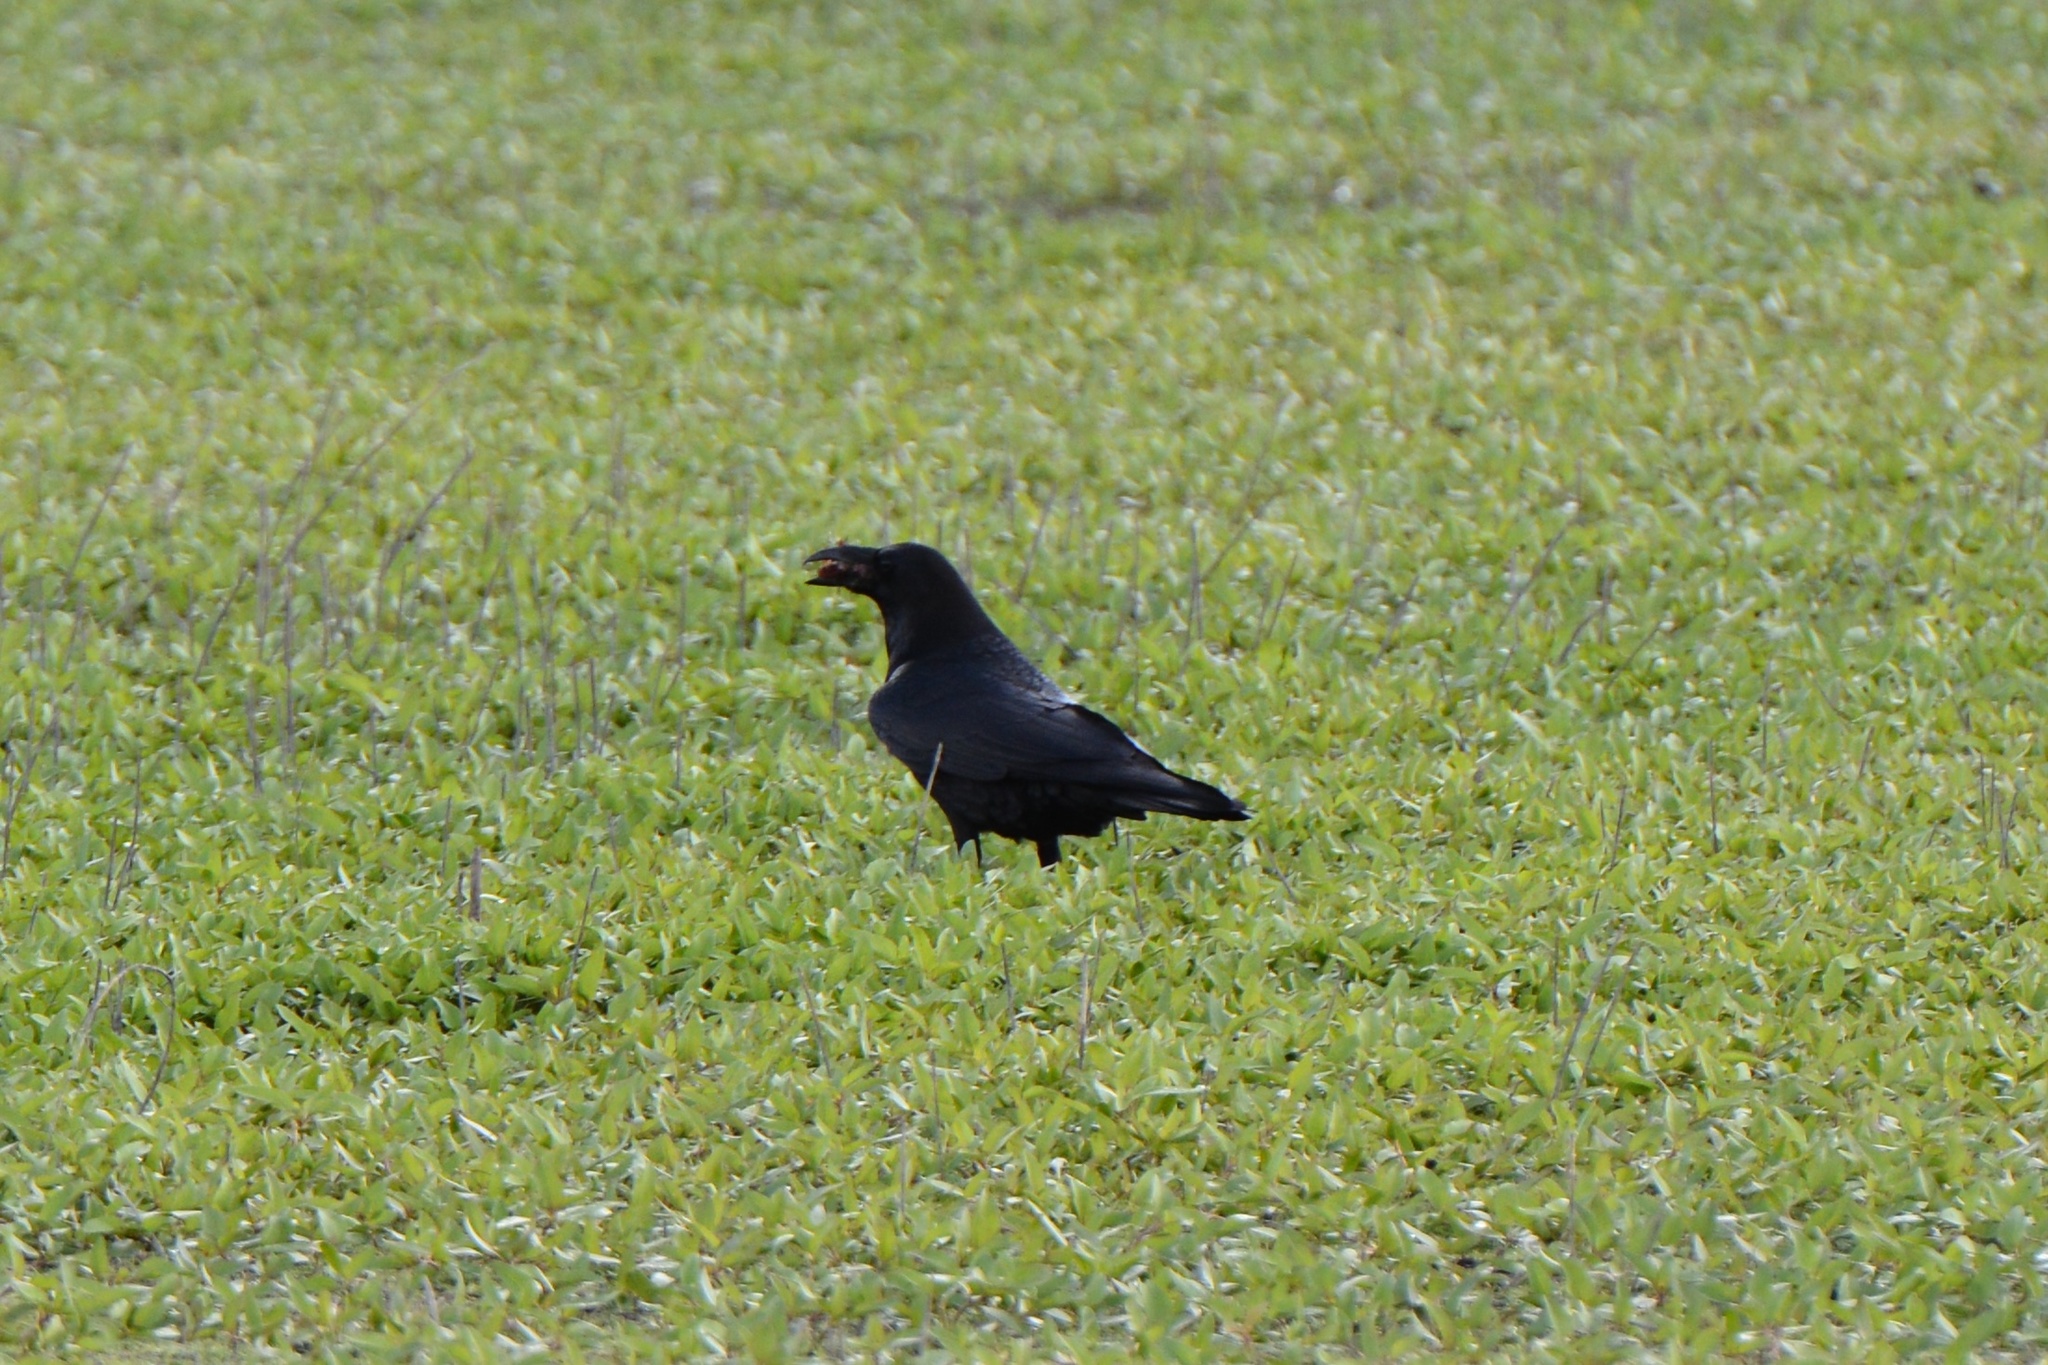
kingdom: Animalia
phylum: Chordata
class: Aves
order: Passeriformes
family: Corvidae
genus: Corvus
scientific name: Corvus corax
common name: Common raven
